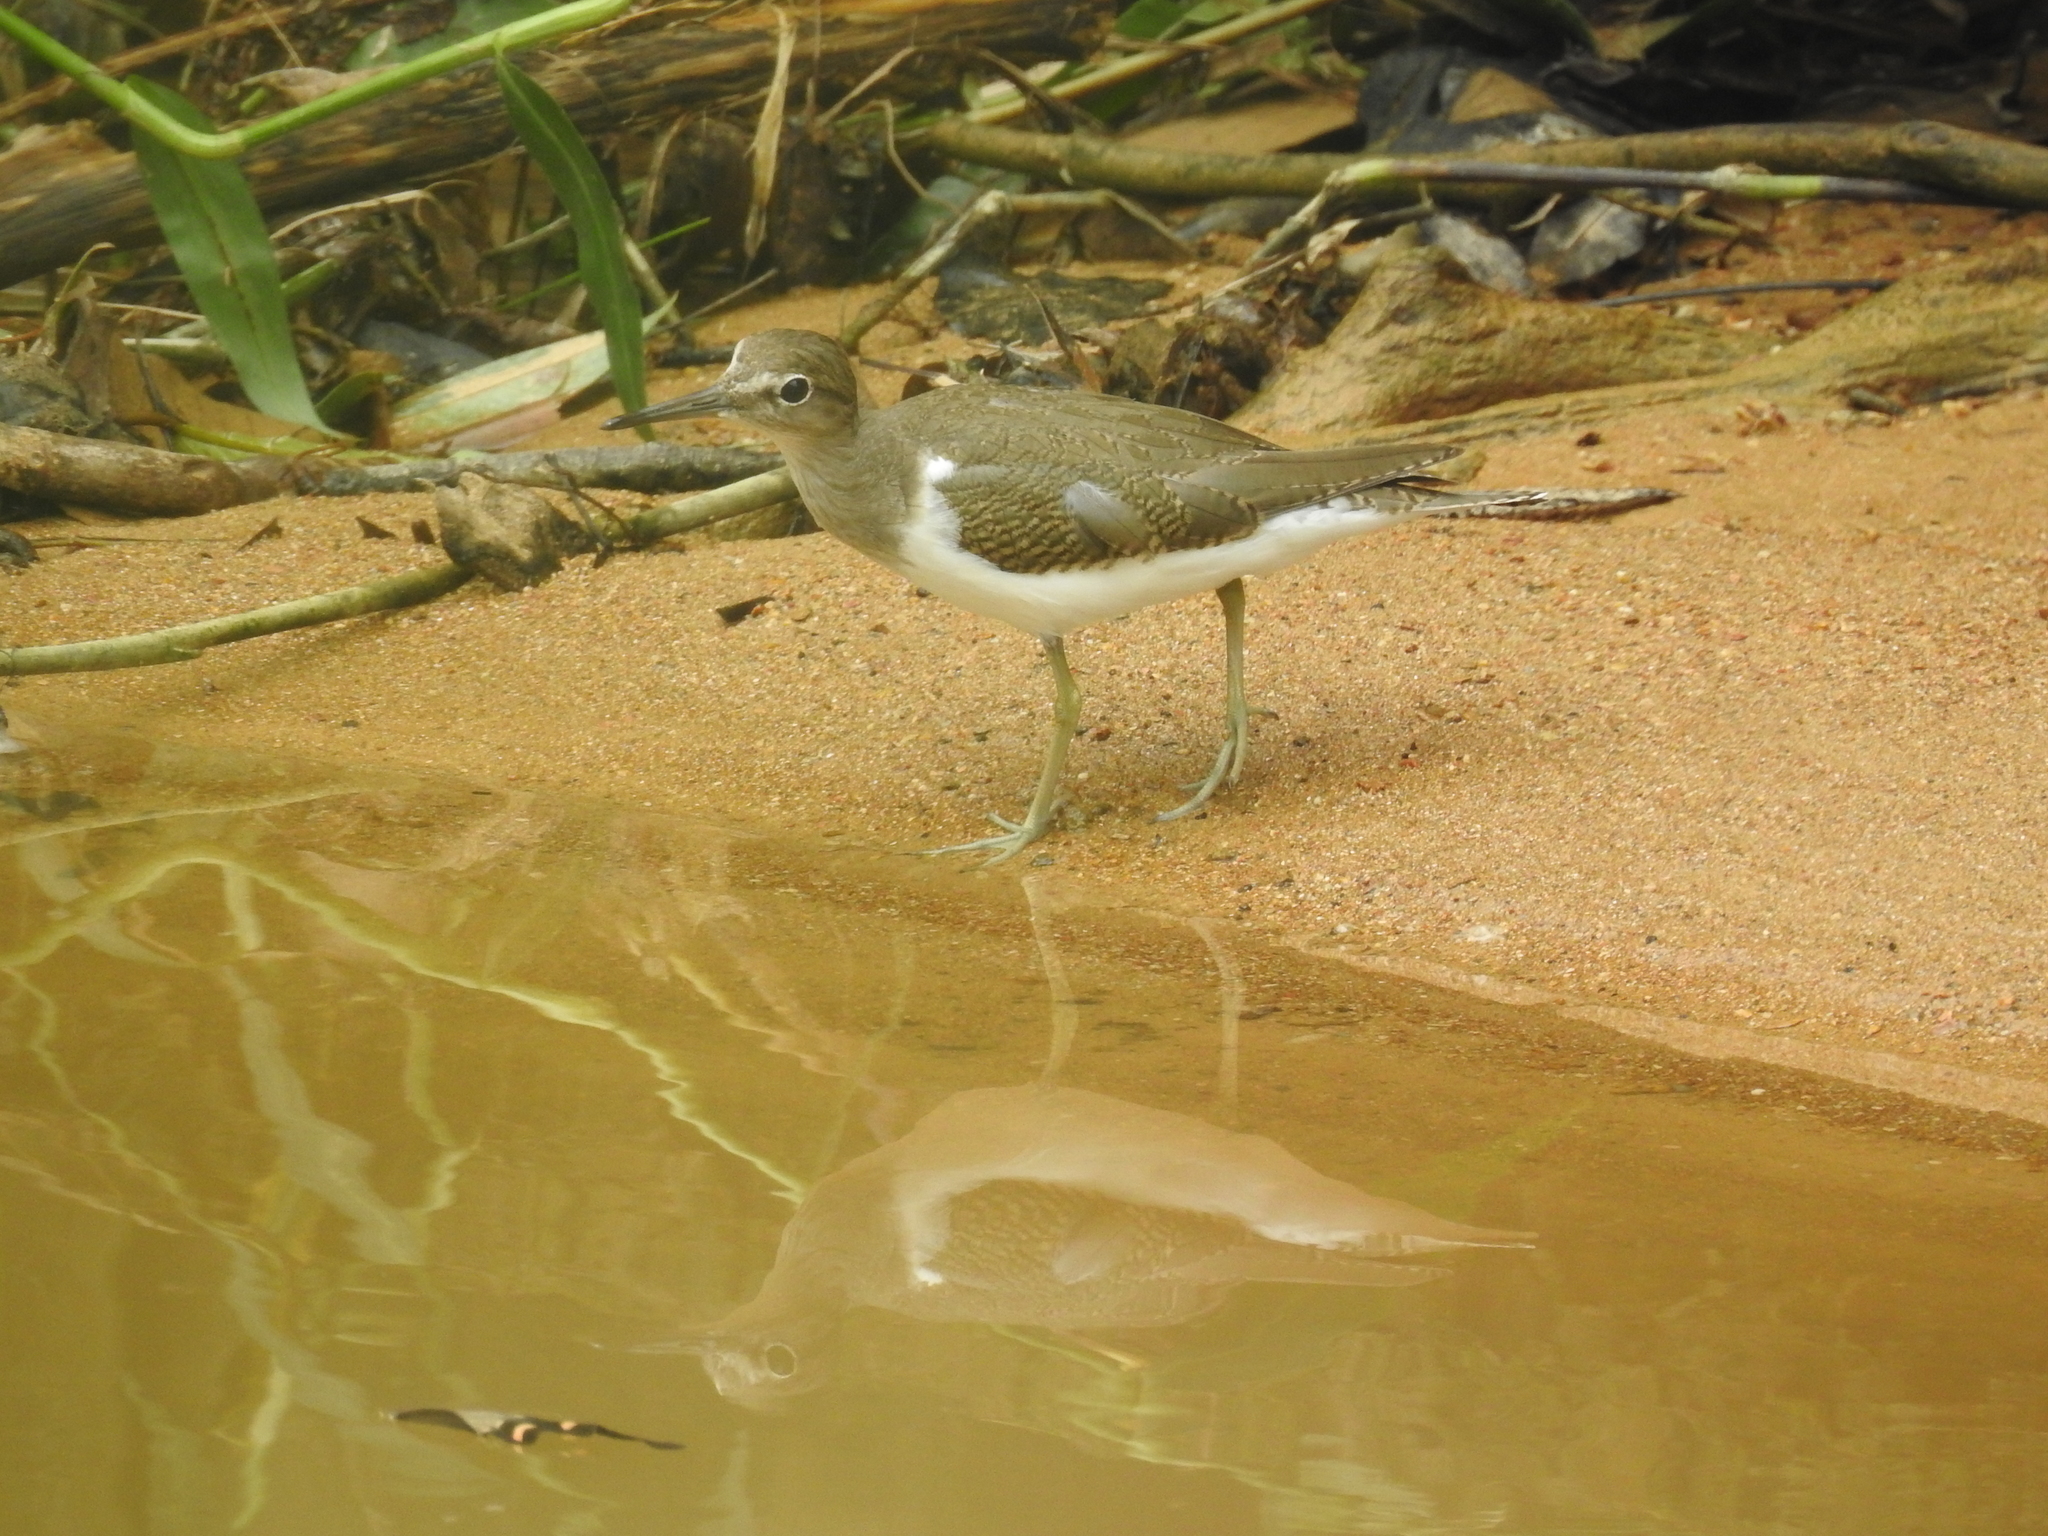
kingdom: Animalia
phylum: Chordata
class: Aves
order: Charadriiformes
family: Scolopacidae
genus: Actitis
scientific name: Actitis hypoleucos
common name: Common sandpiper
